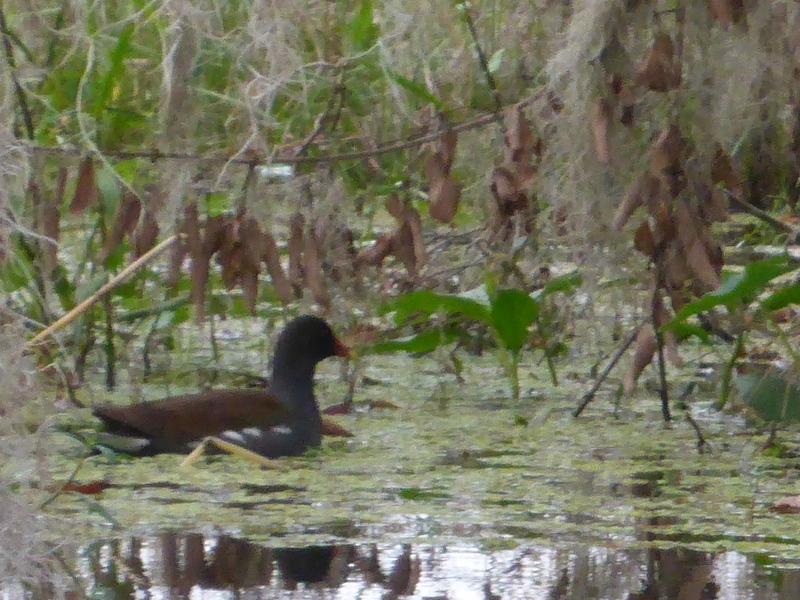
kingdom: Animalia
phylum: Chordata
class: Aves
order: Gruiformes
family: Rallidae
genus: Gallinula
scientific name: Gallinula chloropus
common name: Common moorhen
